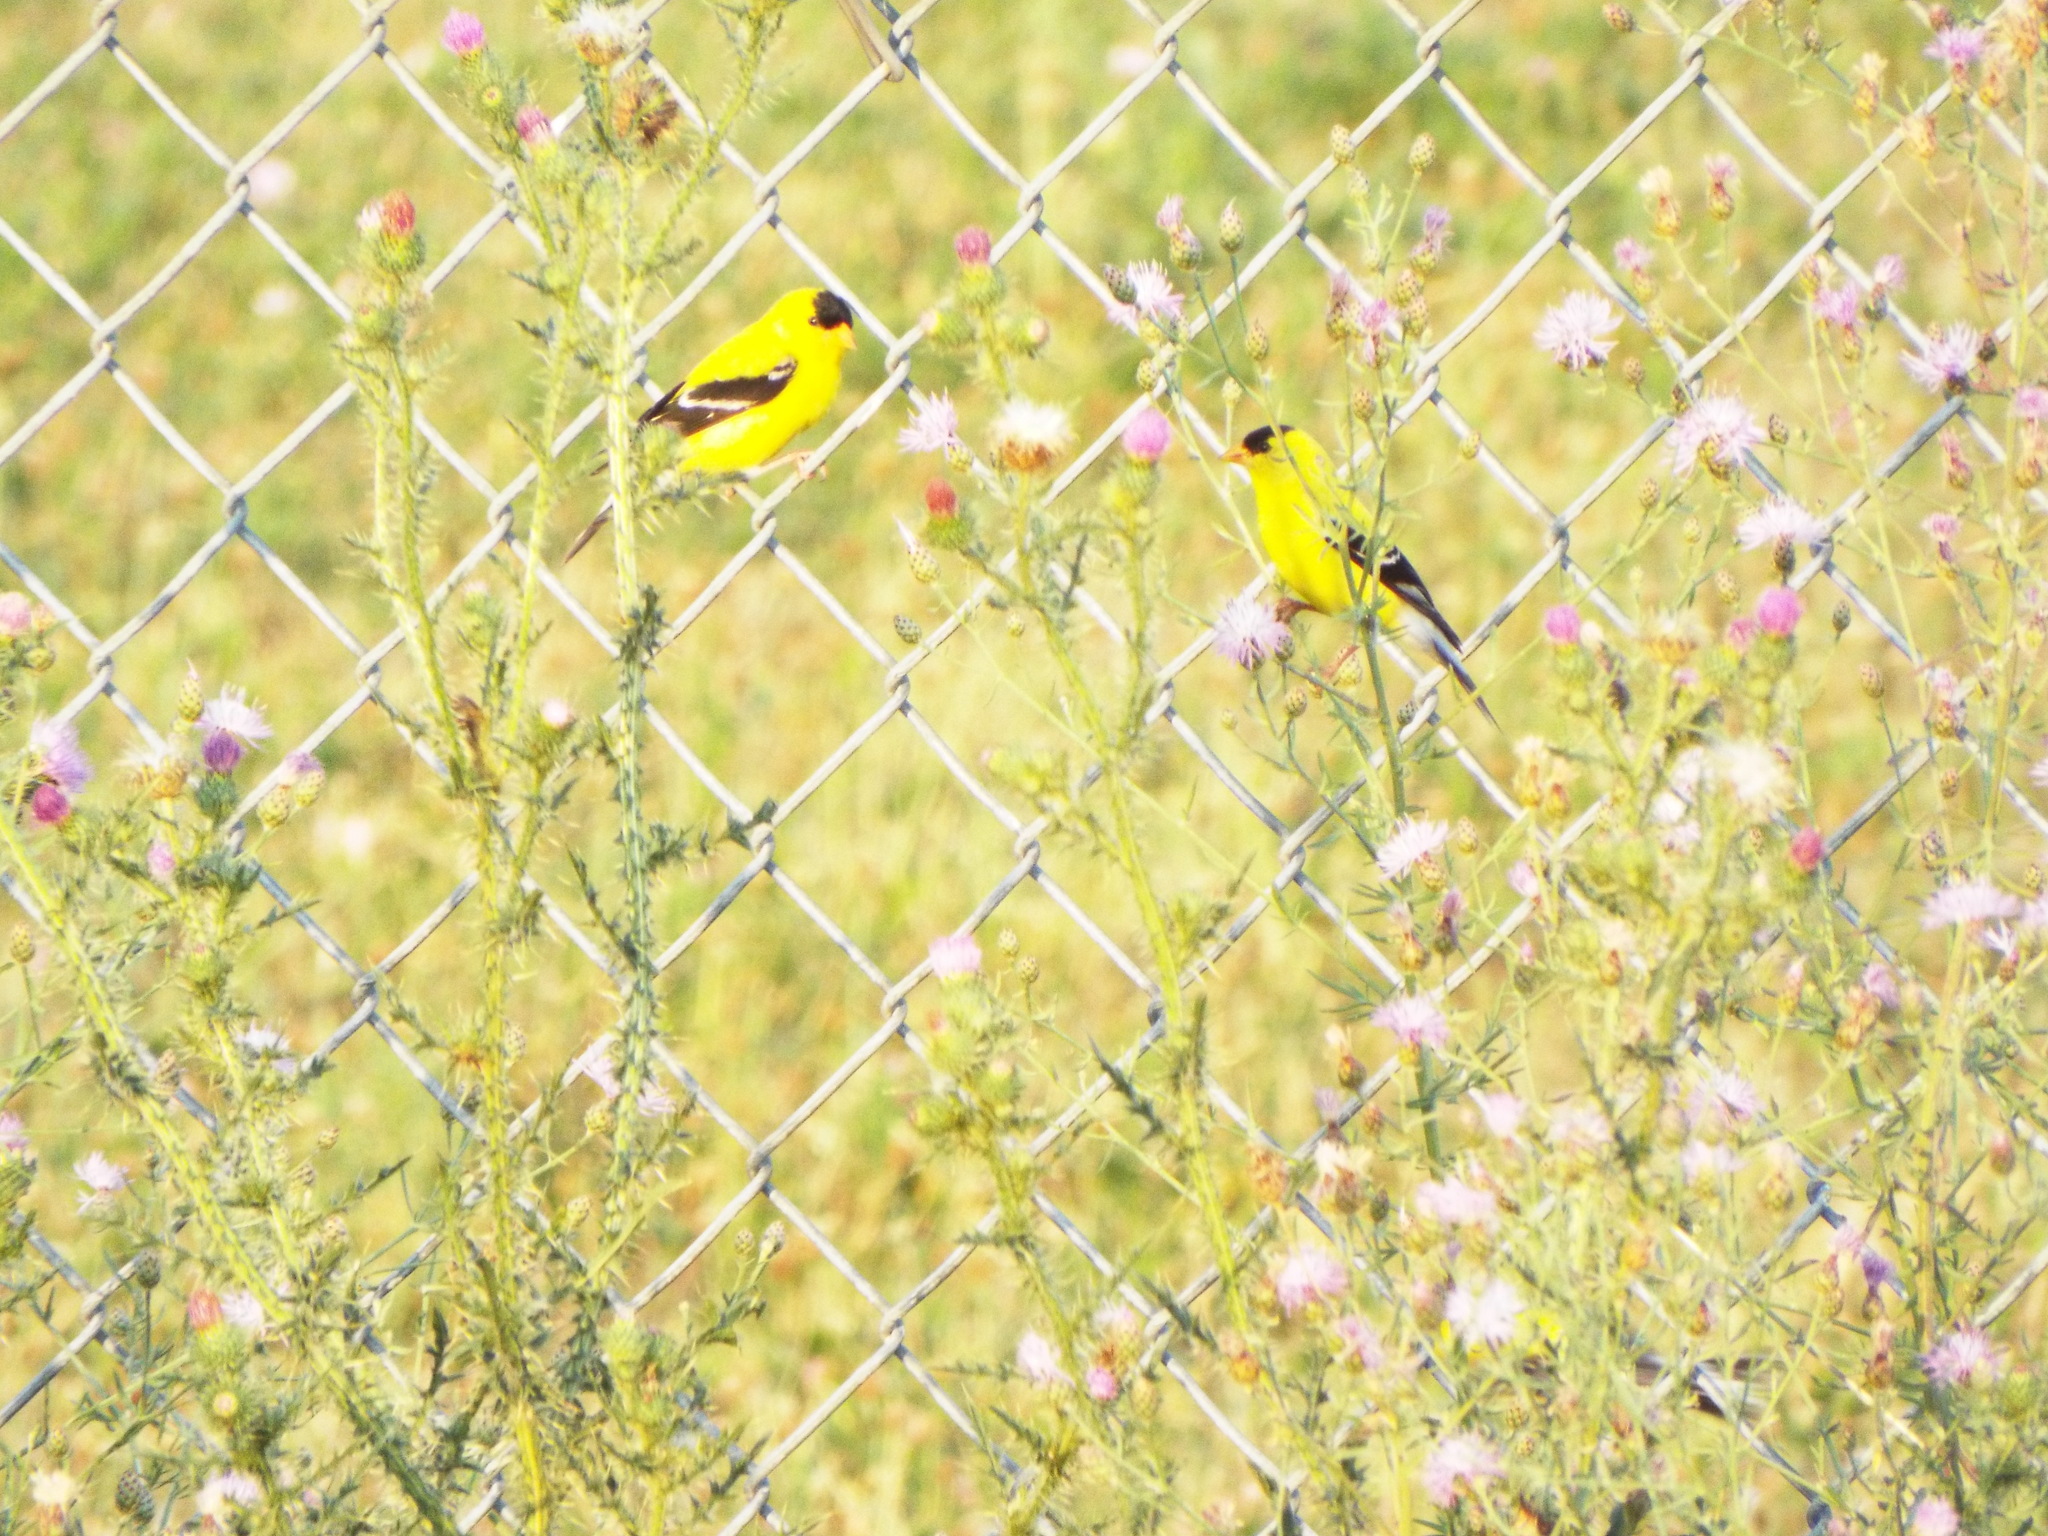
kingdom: Animalia
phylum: Chordata
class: Aves
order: Passeriformes
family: Fringillidae
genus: Spinus
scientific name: Spinus tristis
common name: American goldfinch
